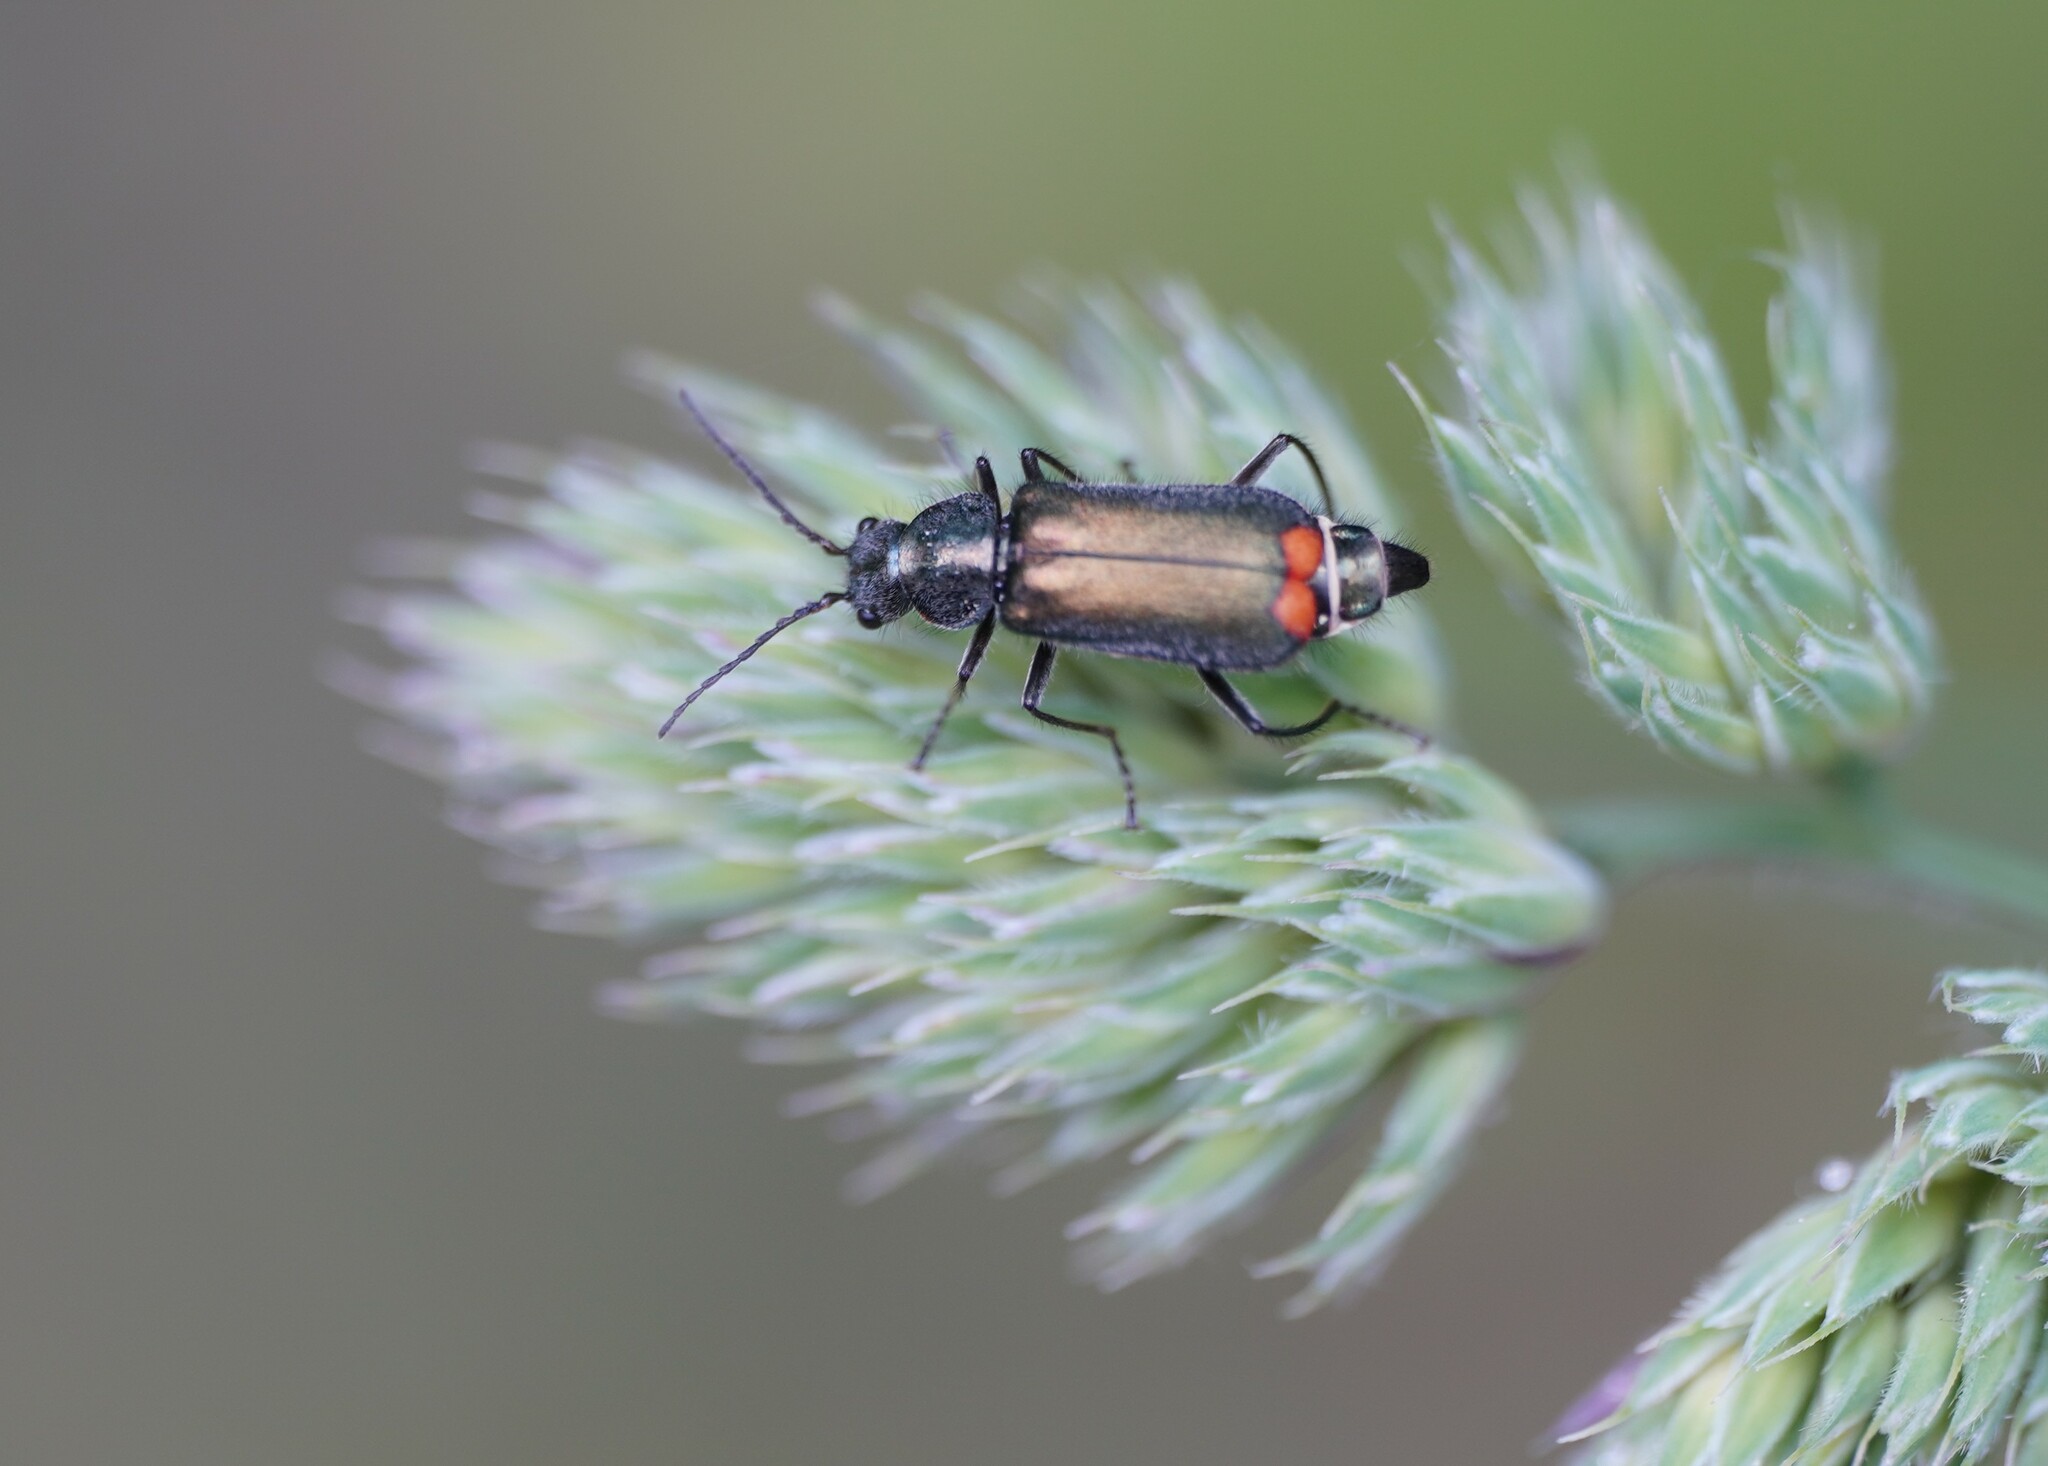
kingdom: Animalia
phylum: Arthropoda
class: Insecta
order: Coleoptera
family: Melyridae
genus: Malachius
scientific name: Malachius bipustulatus
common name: Malachite beetle
